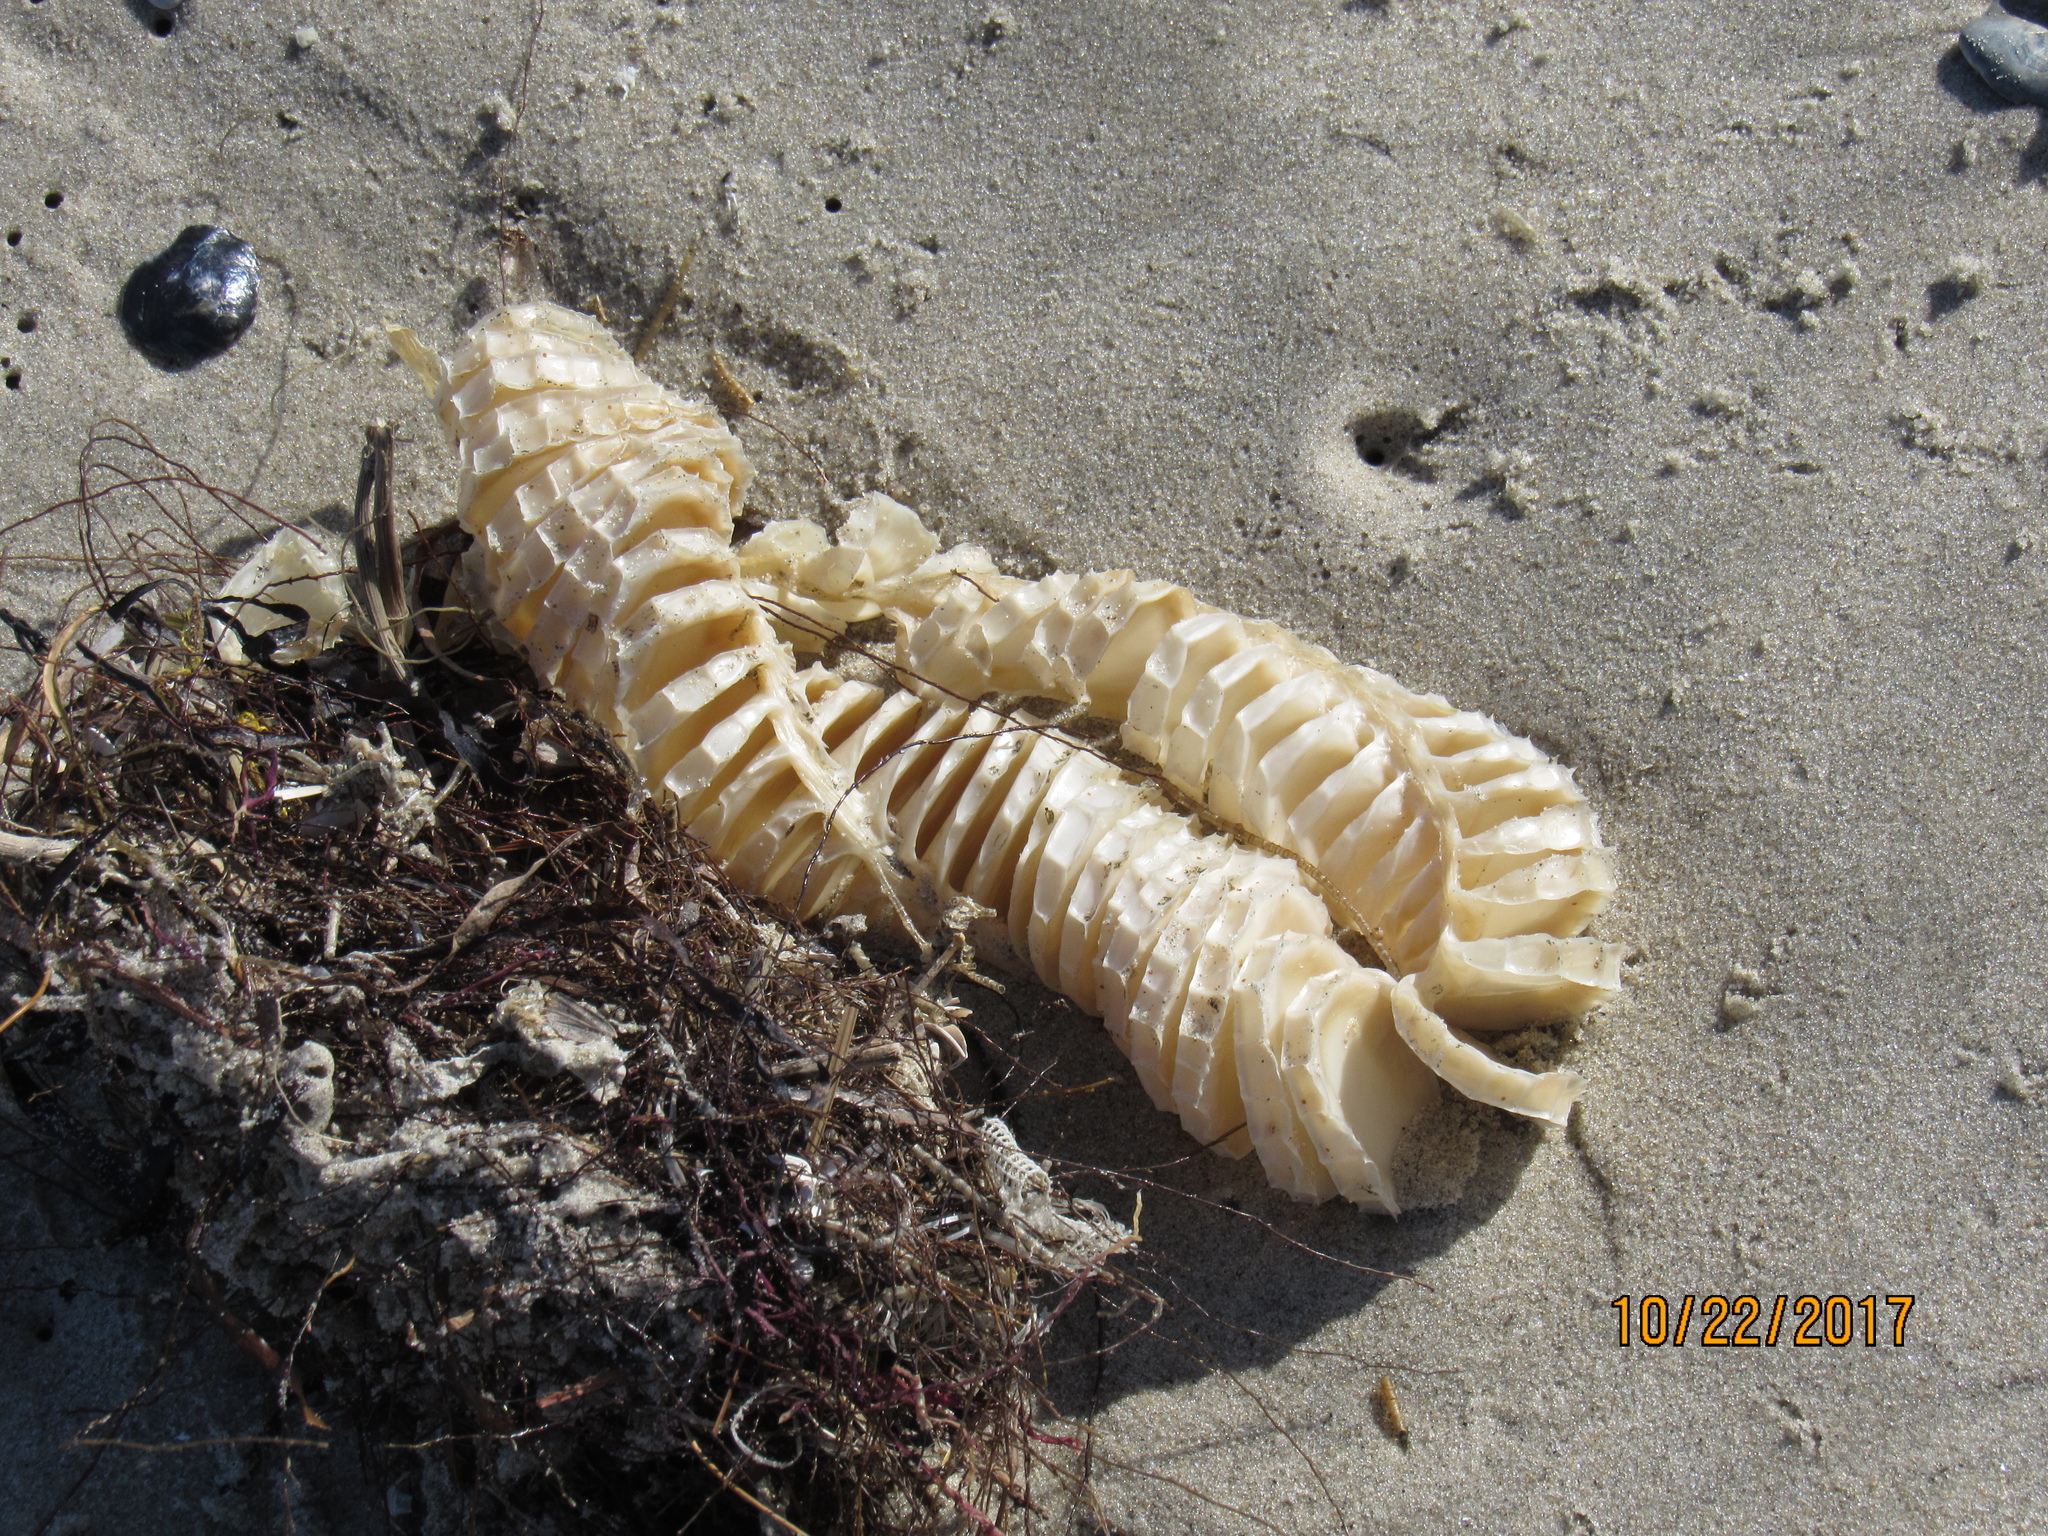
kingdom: Animalia
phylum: Mollusca
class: Gastropoda
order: Neogastropoda
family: Busyconidae
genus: Busycon
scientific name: Busycon carica
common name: Knobbed whelk
